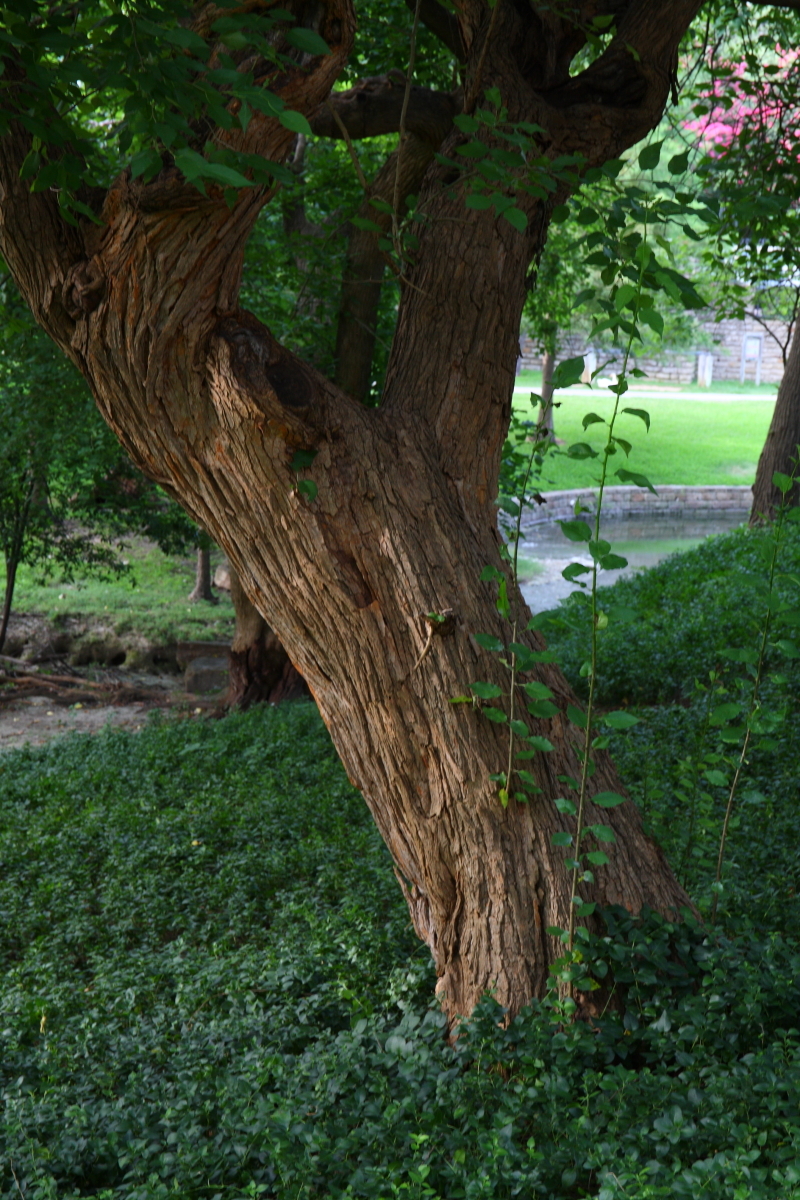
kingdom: Plantae
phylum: Tracheophyta
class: Magnoliopsida
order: Rosales
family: Moraceae
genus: Maclura
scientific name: Maclura pomifera
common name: Osage-orange
